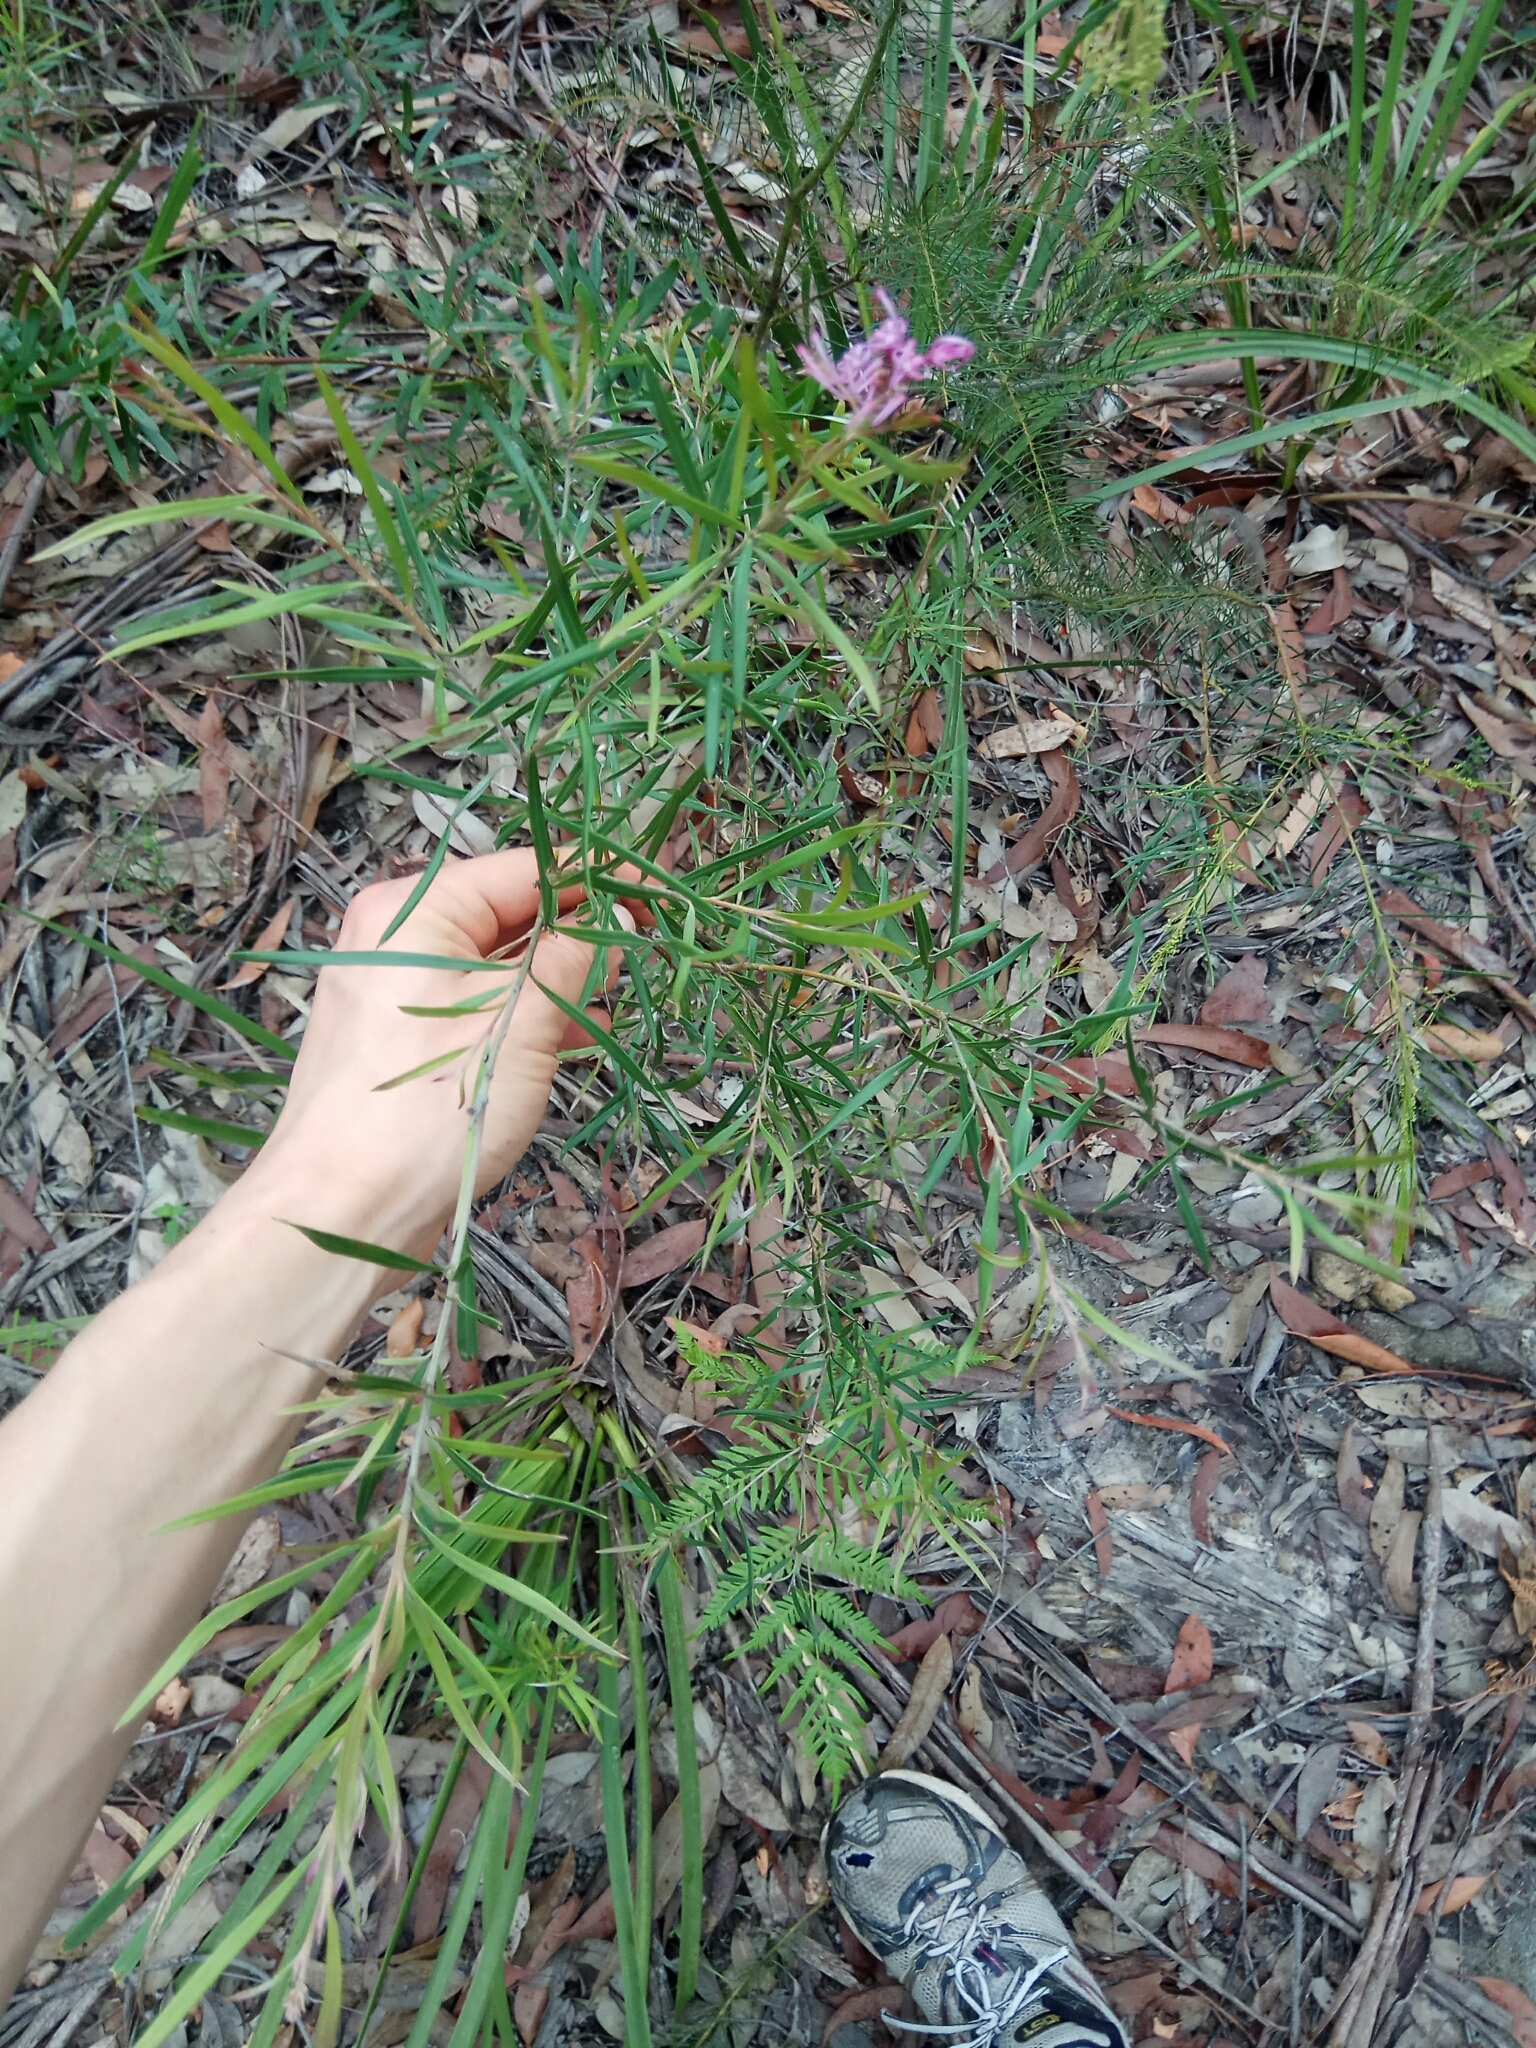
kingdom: Plantae
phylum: Tracheophyta
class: Magnoliopsida
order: Proteales
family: Proteaceae
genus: Grevillea
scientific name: Grevillea sericea
